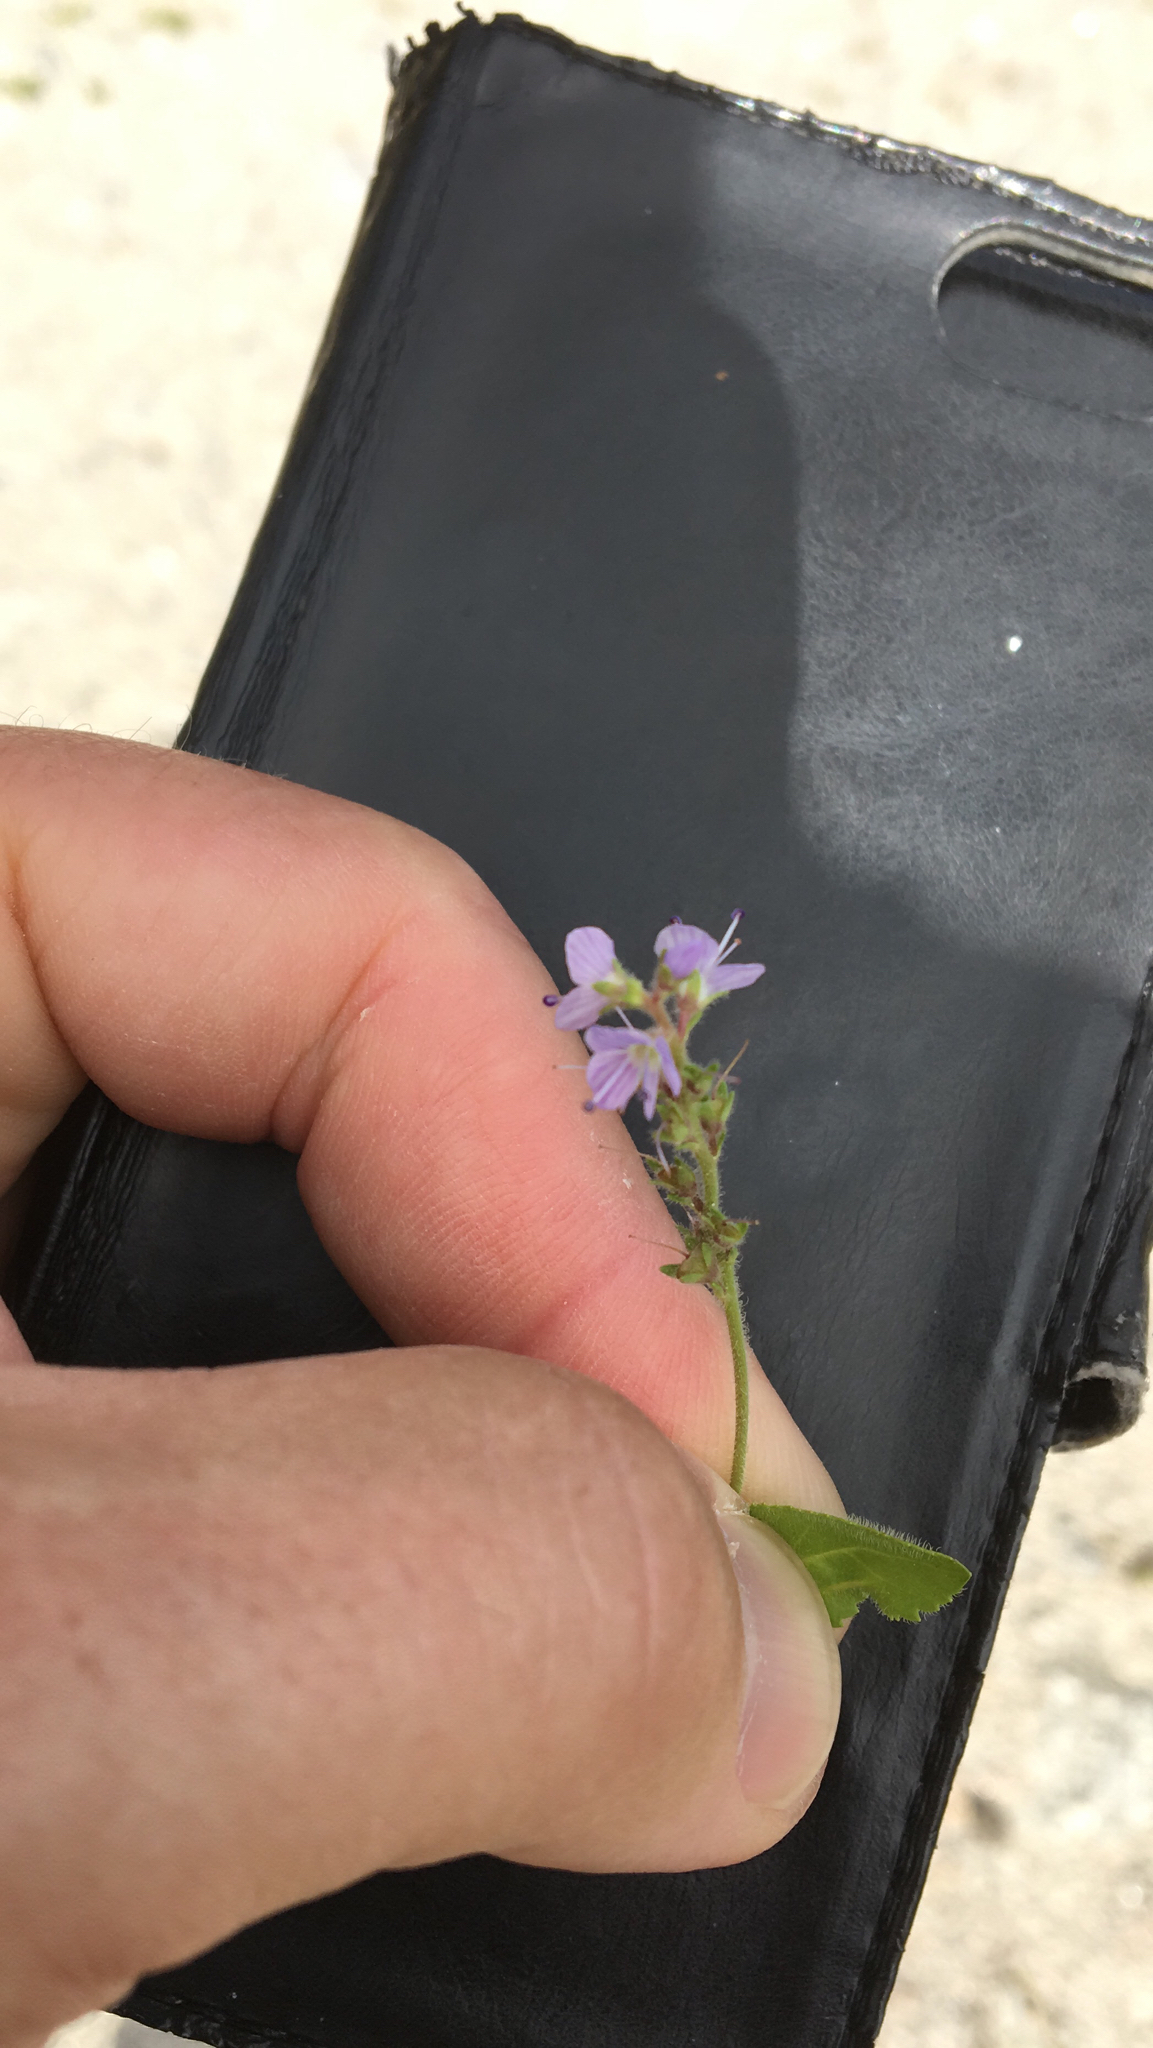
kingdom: Plantae
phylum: Tracheophyta
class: Magnoliopsida
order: Lamiales
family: Plantaginaceae
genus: Veronica
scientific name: Veronica officinalis
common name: Common speedwell
